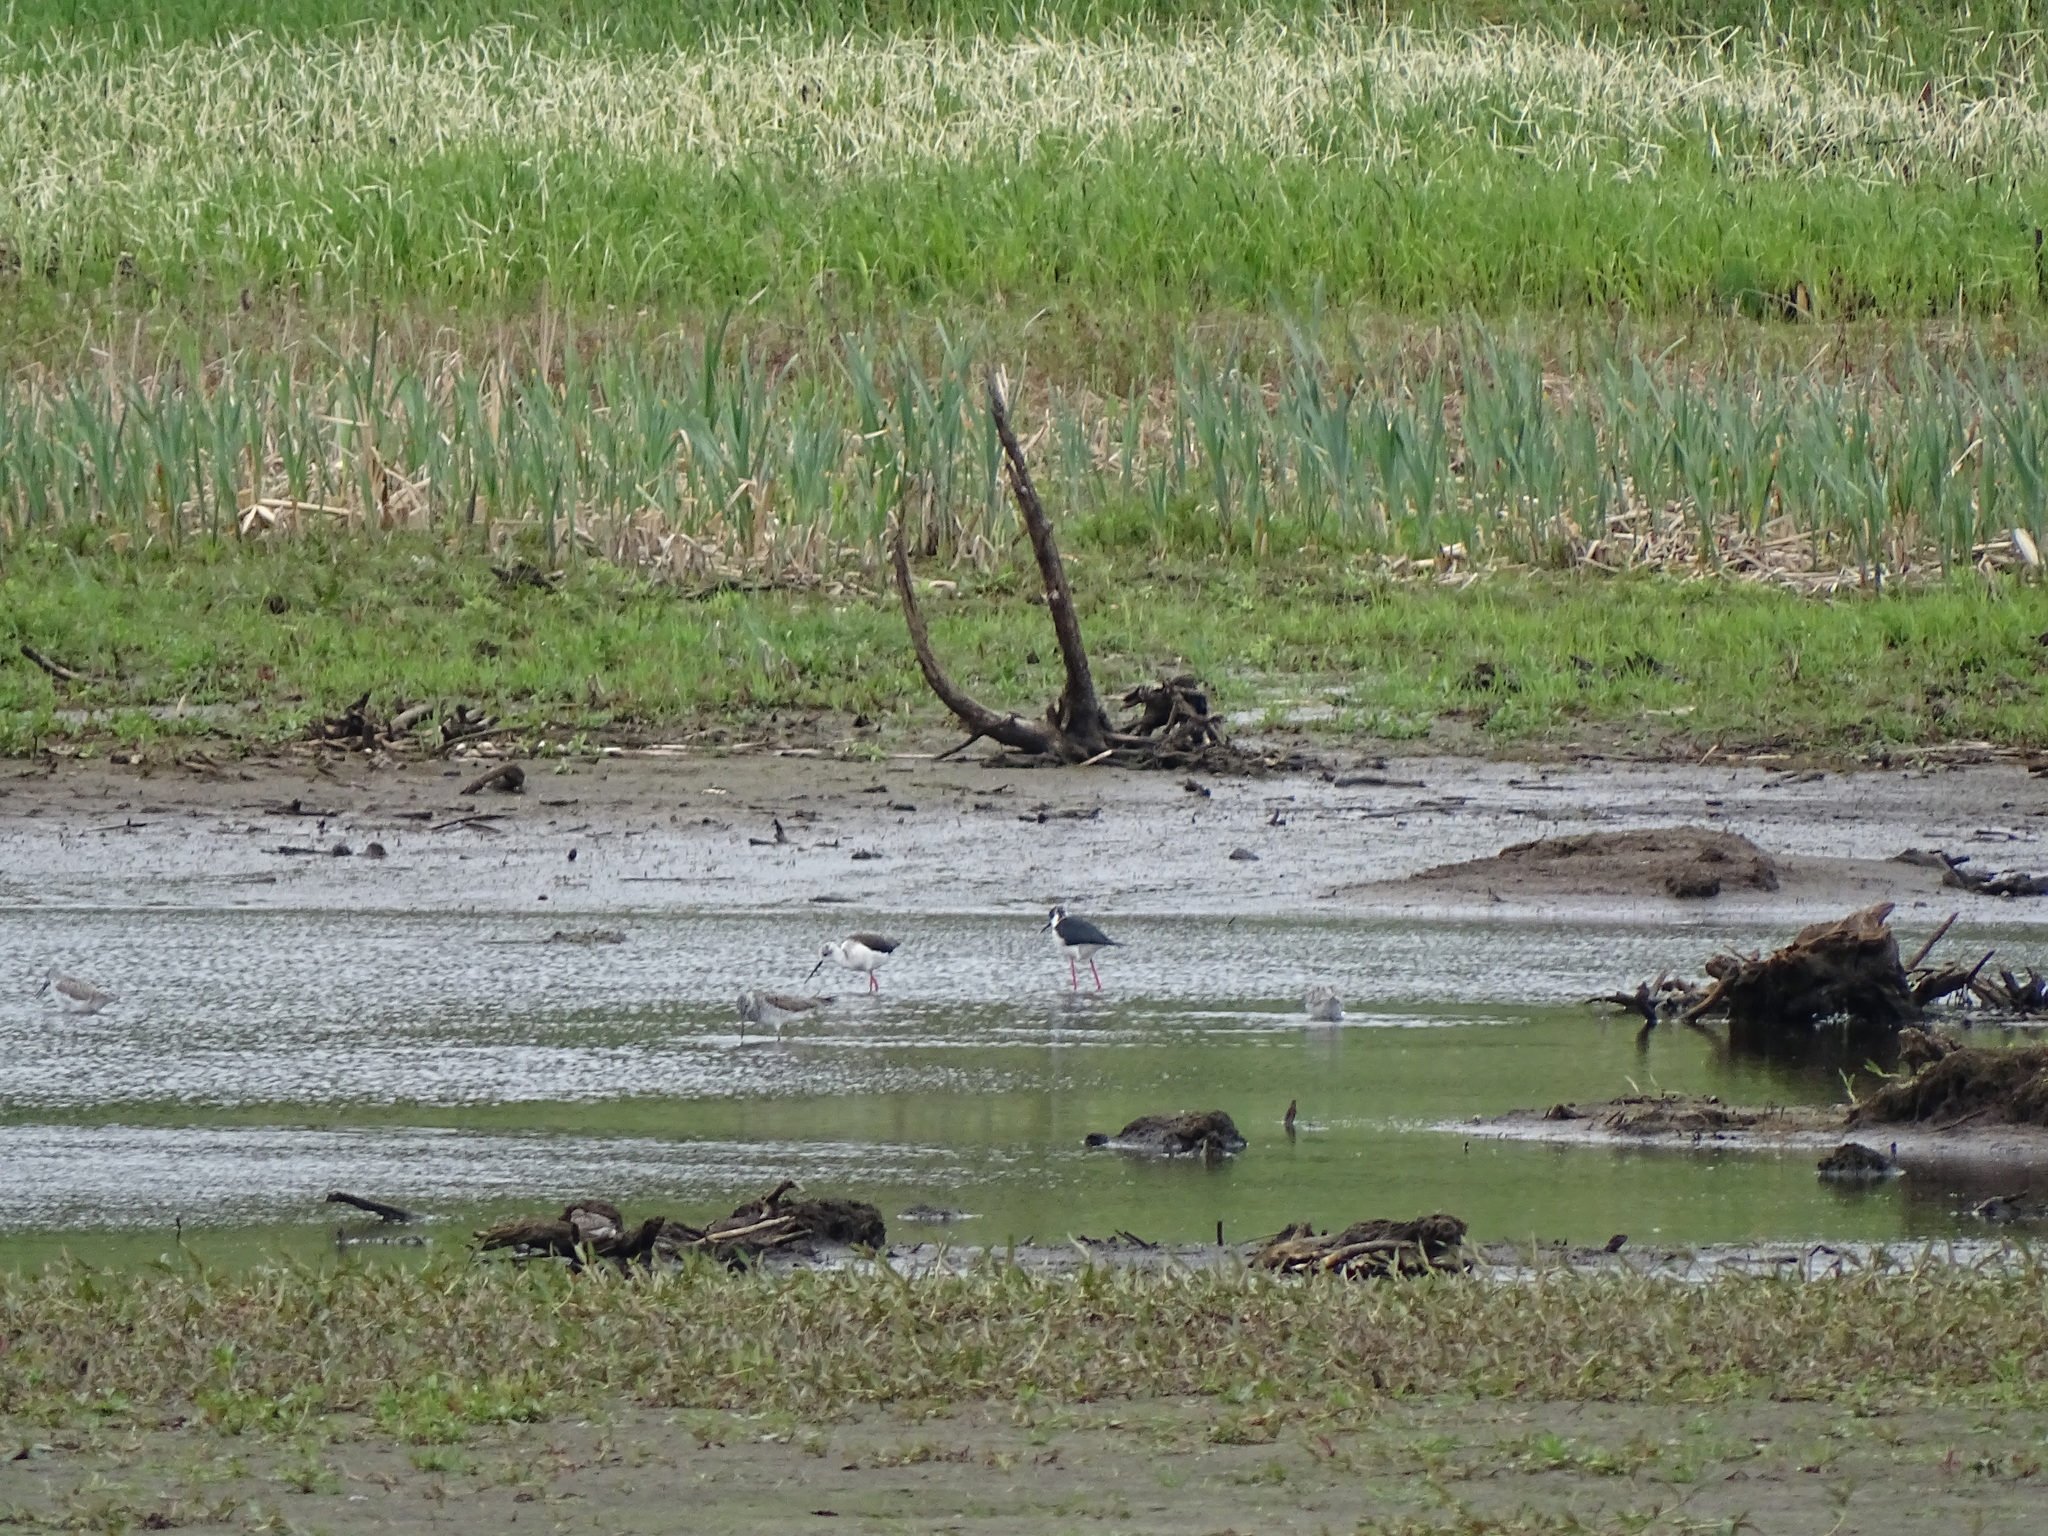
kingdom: Animalia
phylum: Chordata
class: Aves
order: Charadriiformes
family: Recurvirostridae
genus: Himantopus
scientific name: Himantopus himantopus
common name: Black-winged stilt
